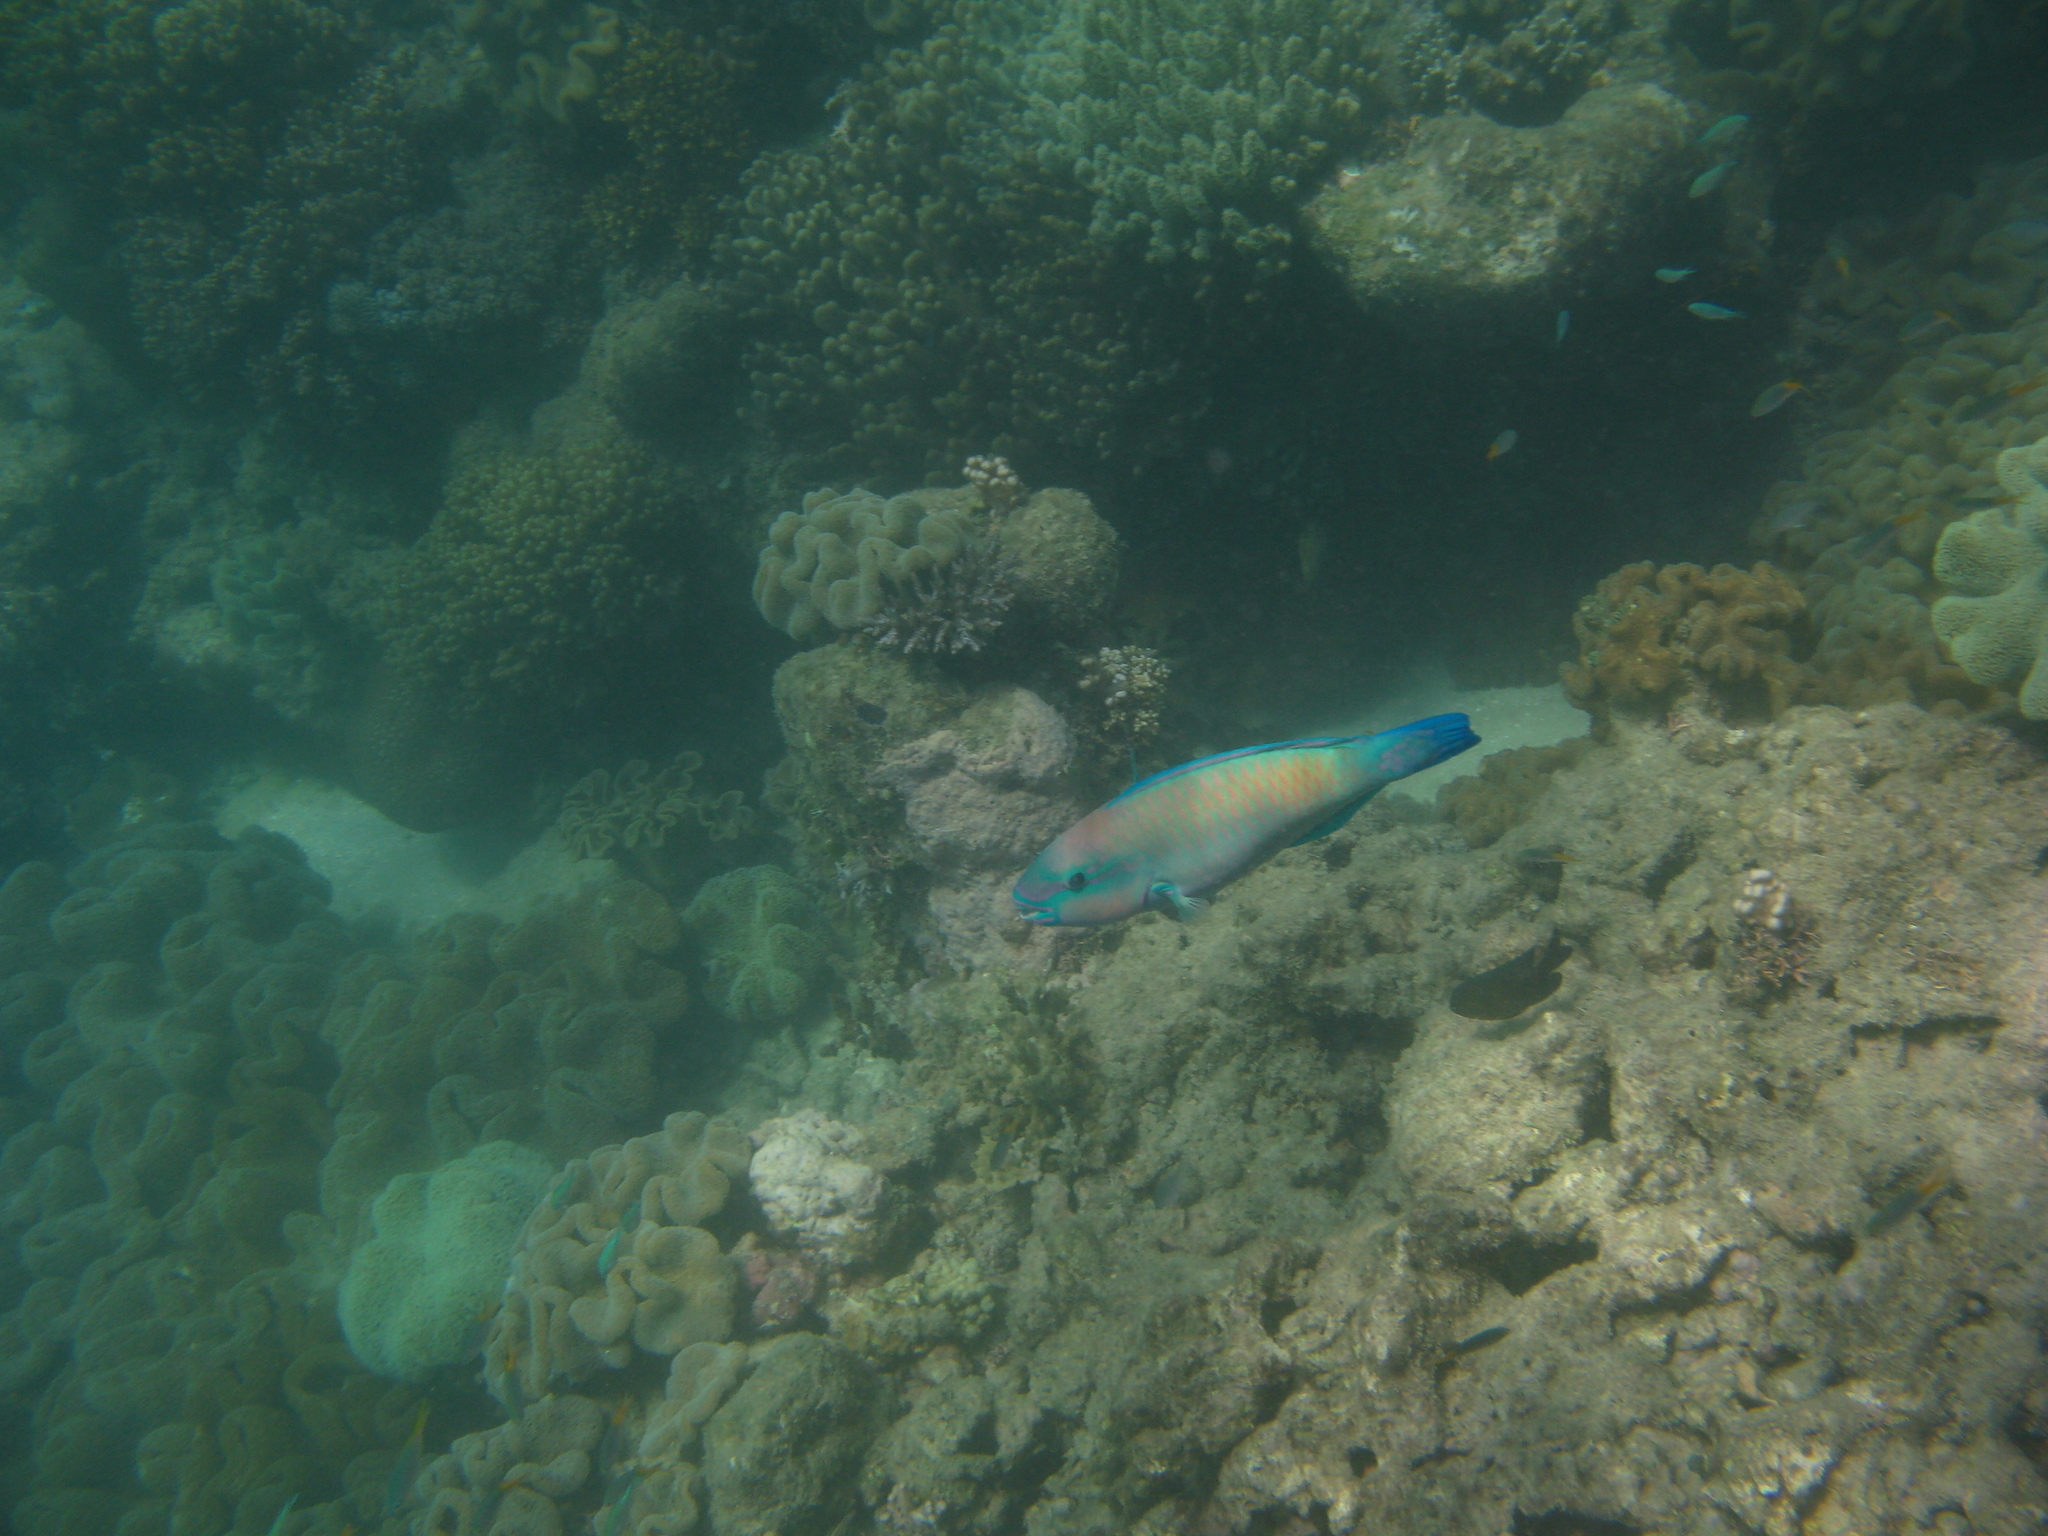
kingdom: Animalia
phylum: Chordata
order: Perciformes
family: Scaridae
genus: Scarus
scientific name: Scarus psittacus
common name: Palenose parrotfish
